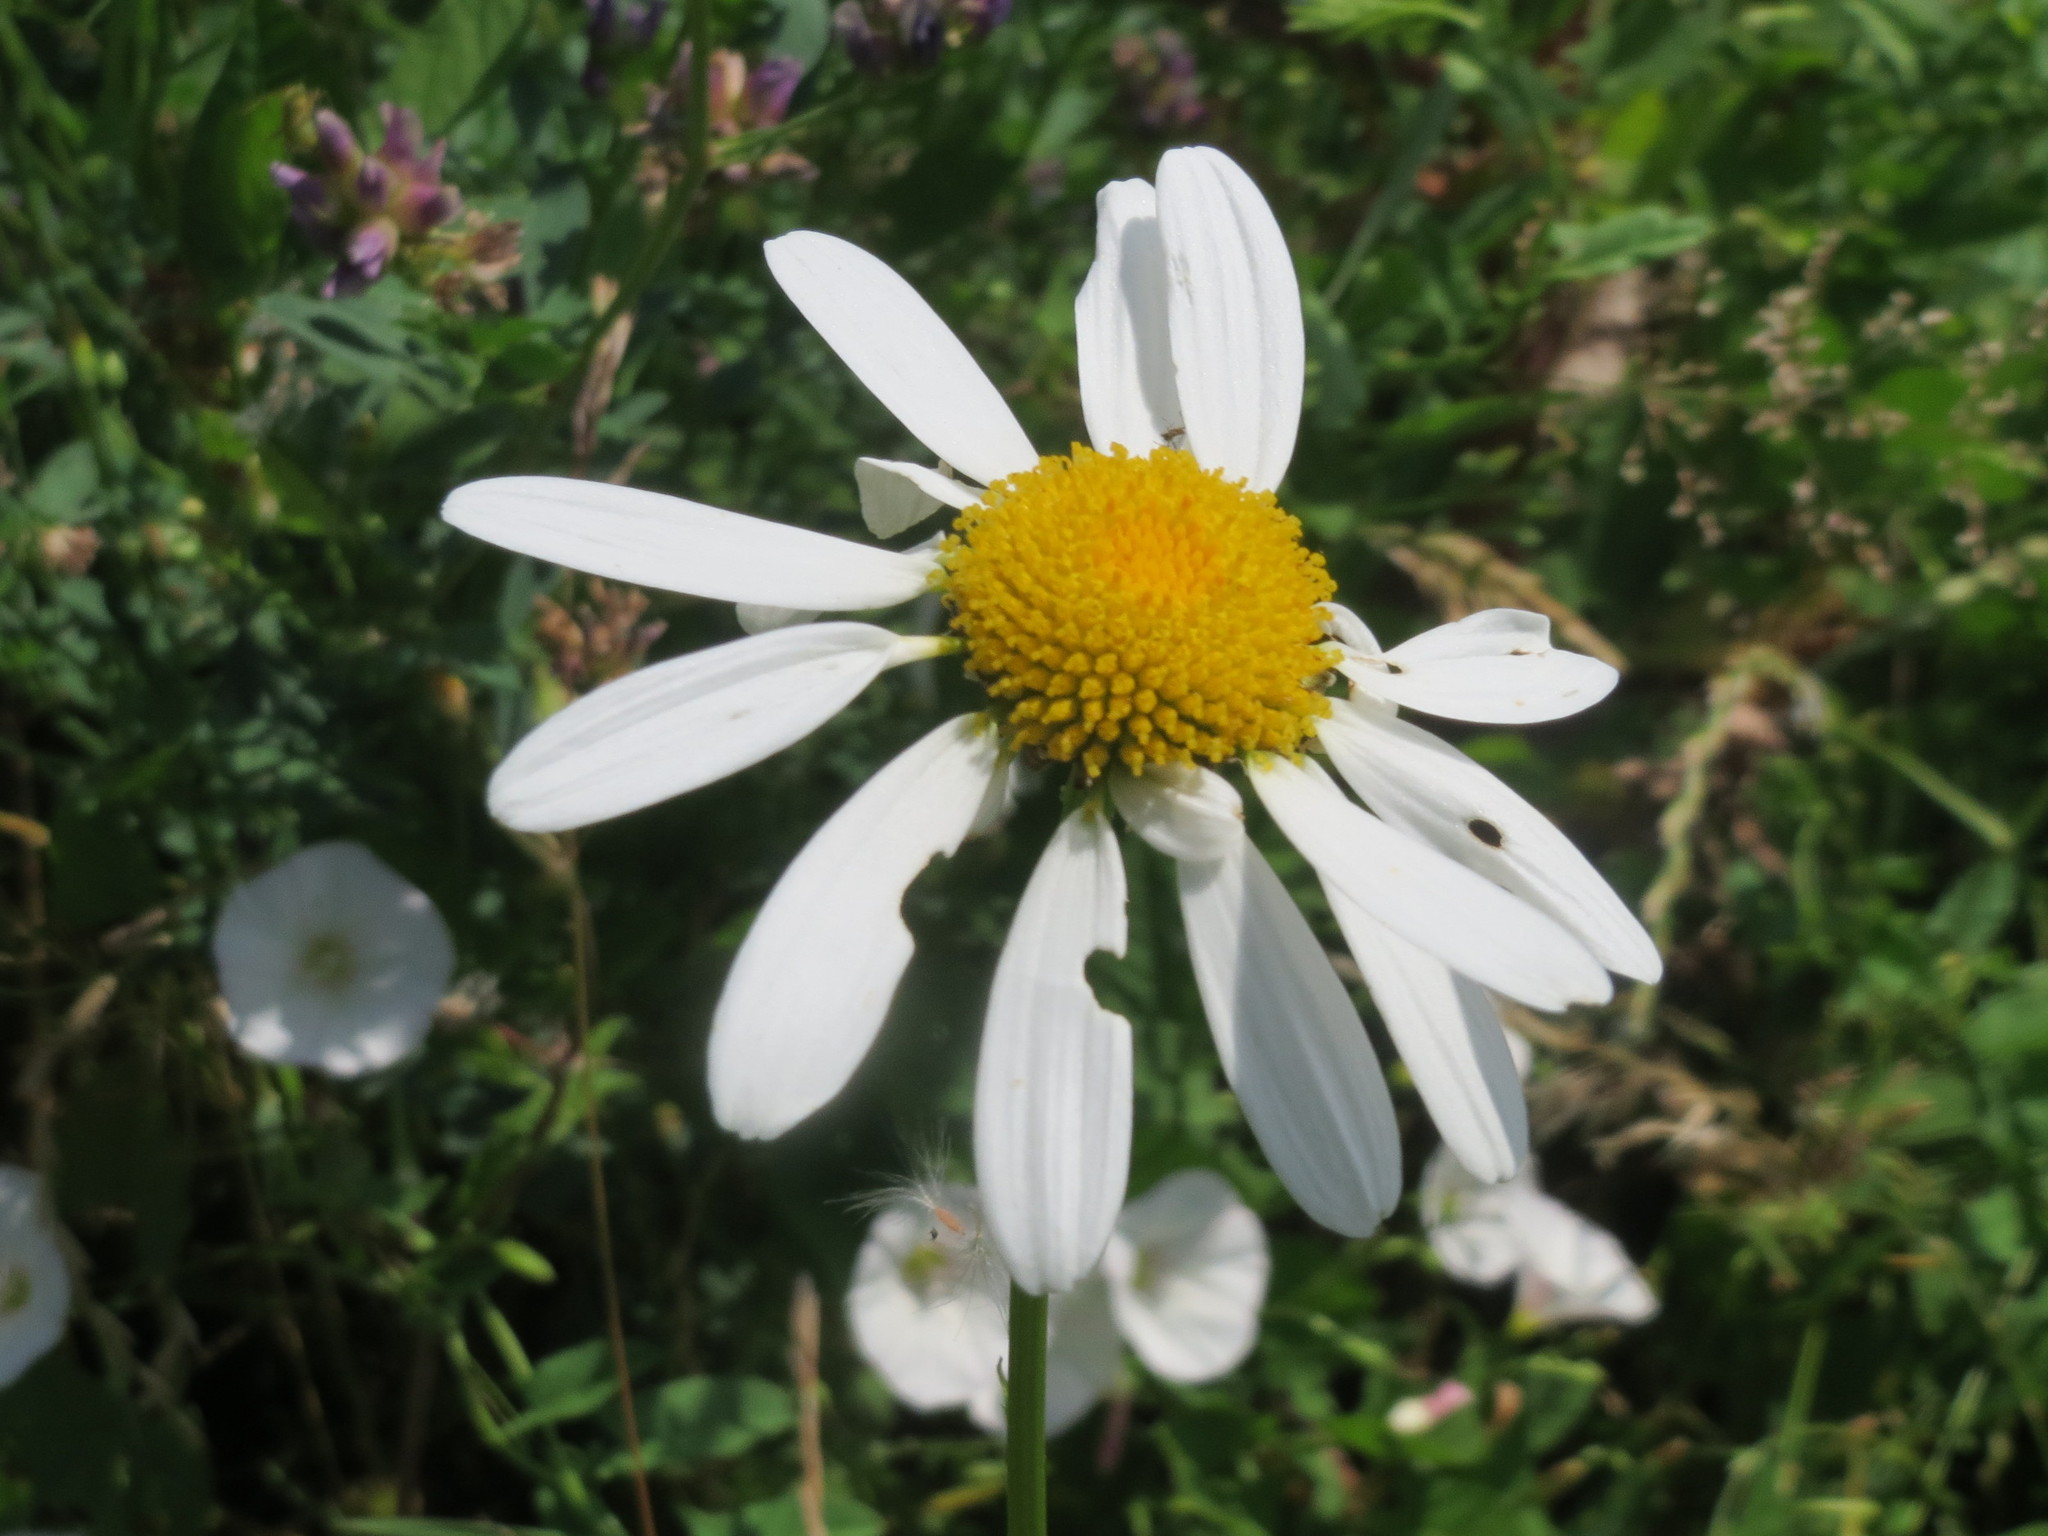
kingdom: Plantae
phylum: Tracheophyta
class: Magnoliopsida
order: Asterales
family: Asteraceae
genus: Leucanthemum
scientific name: Leucanthemum vulgare
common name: Oxeye daisy
